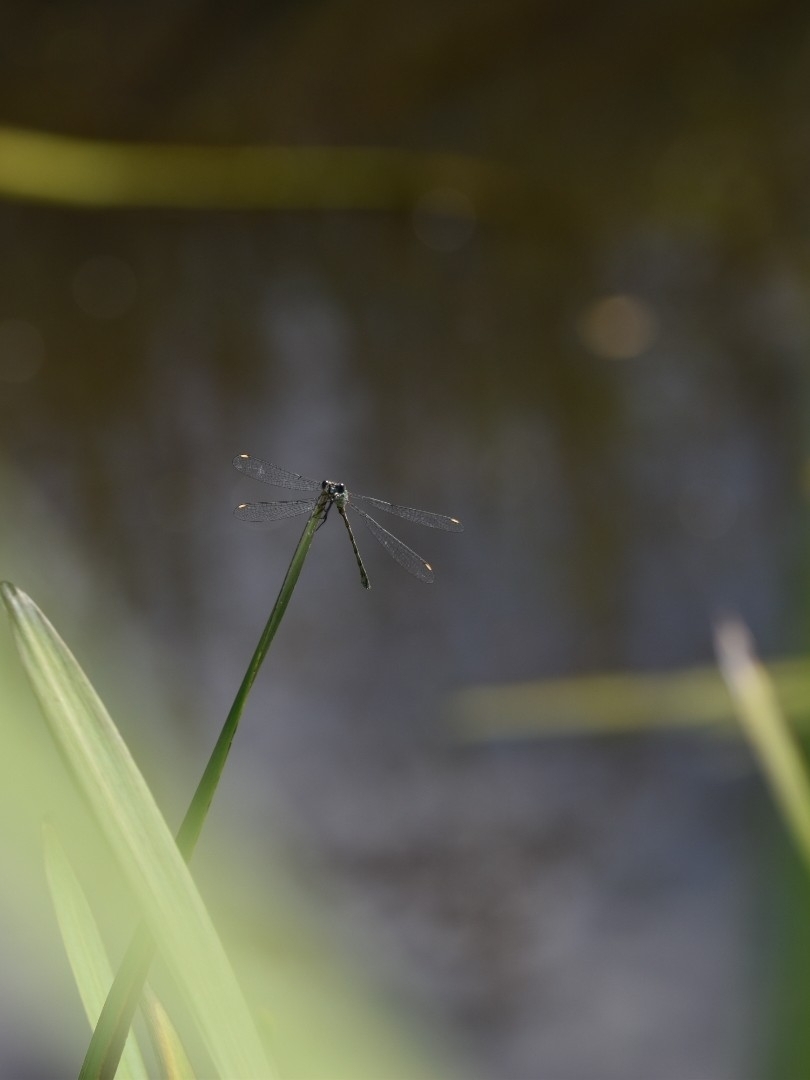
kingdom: Animalia
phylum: Arthropoda
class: Insecta
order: Odonata
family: Lestidae
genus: Chalcolestes
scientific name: Chalcolestes viridis
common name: Green emerald damselfly
